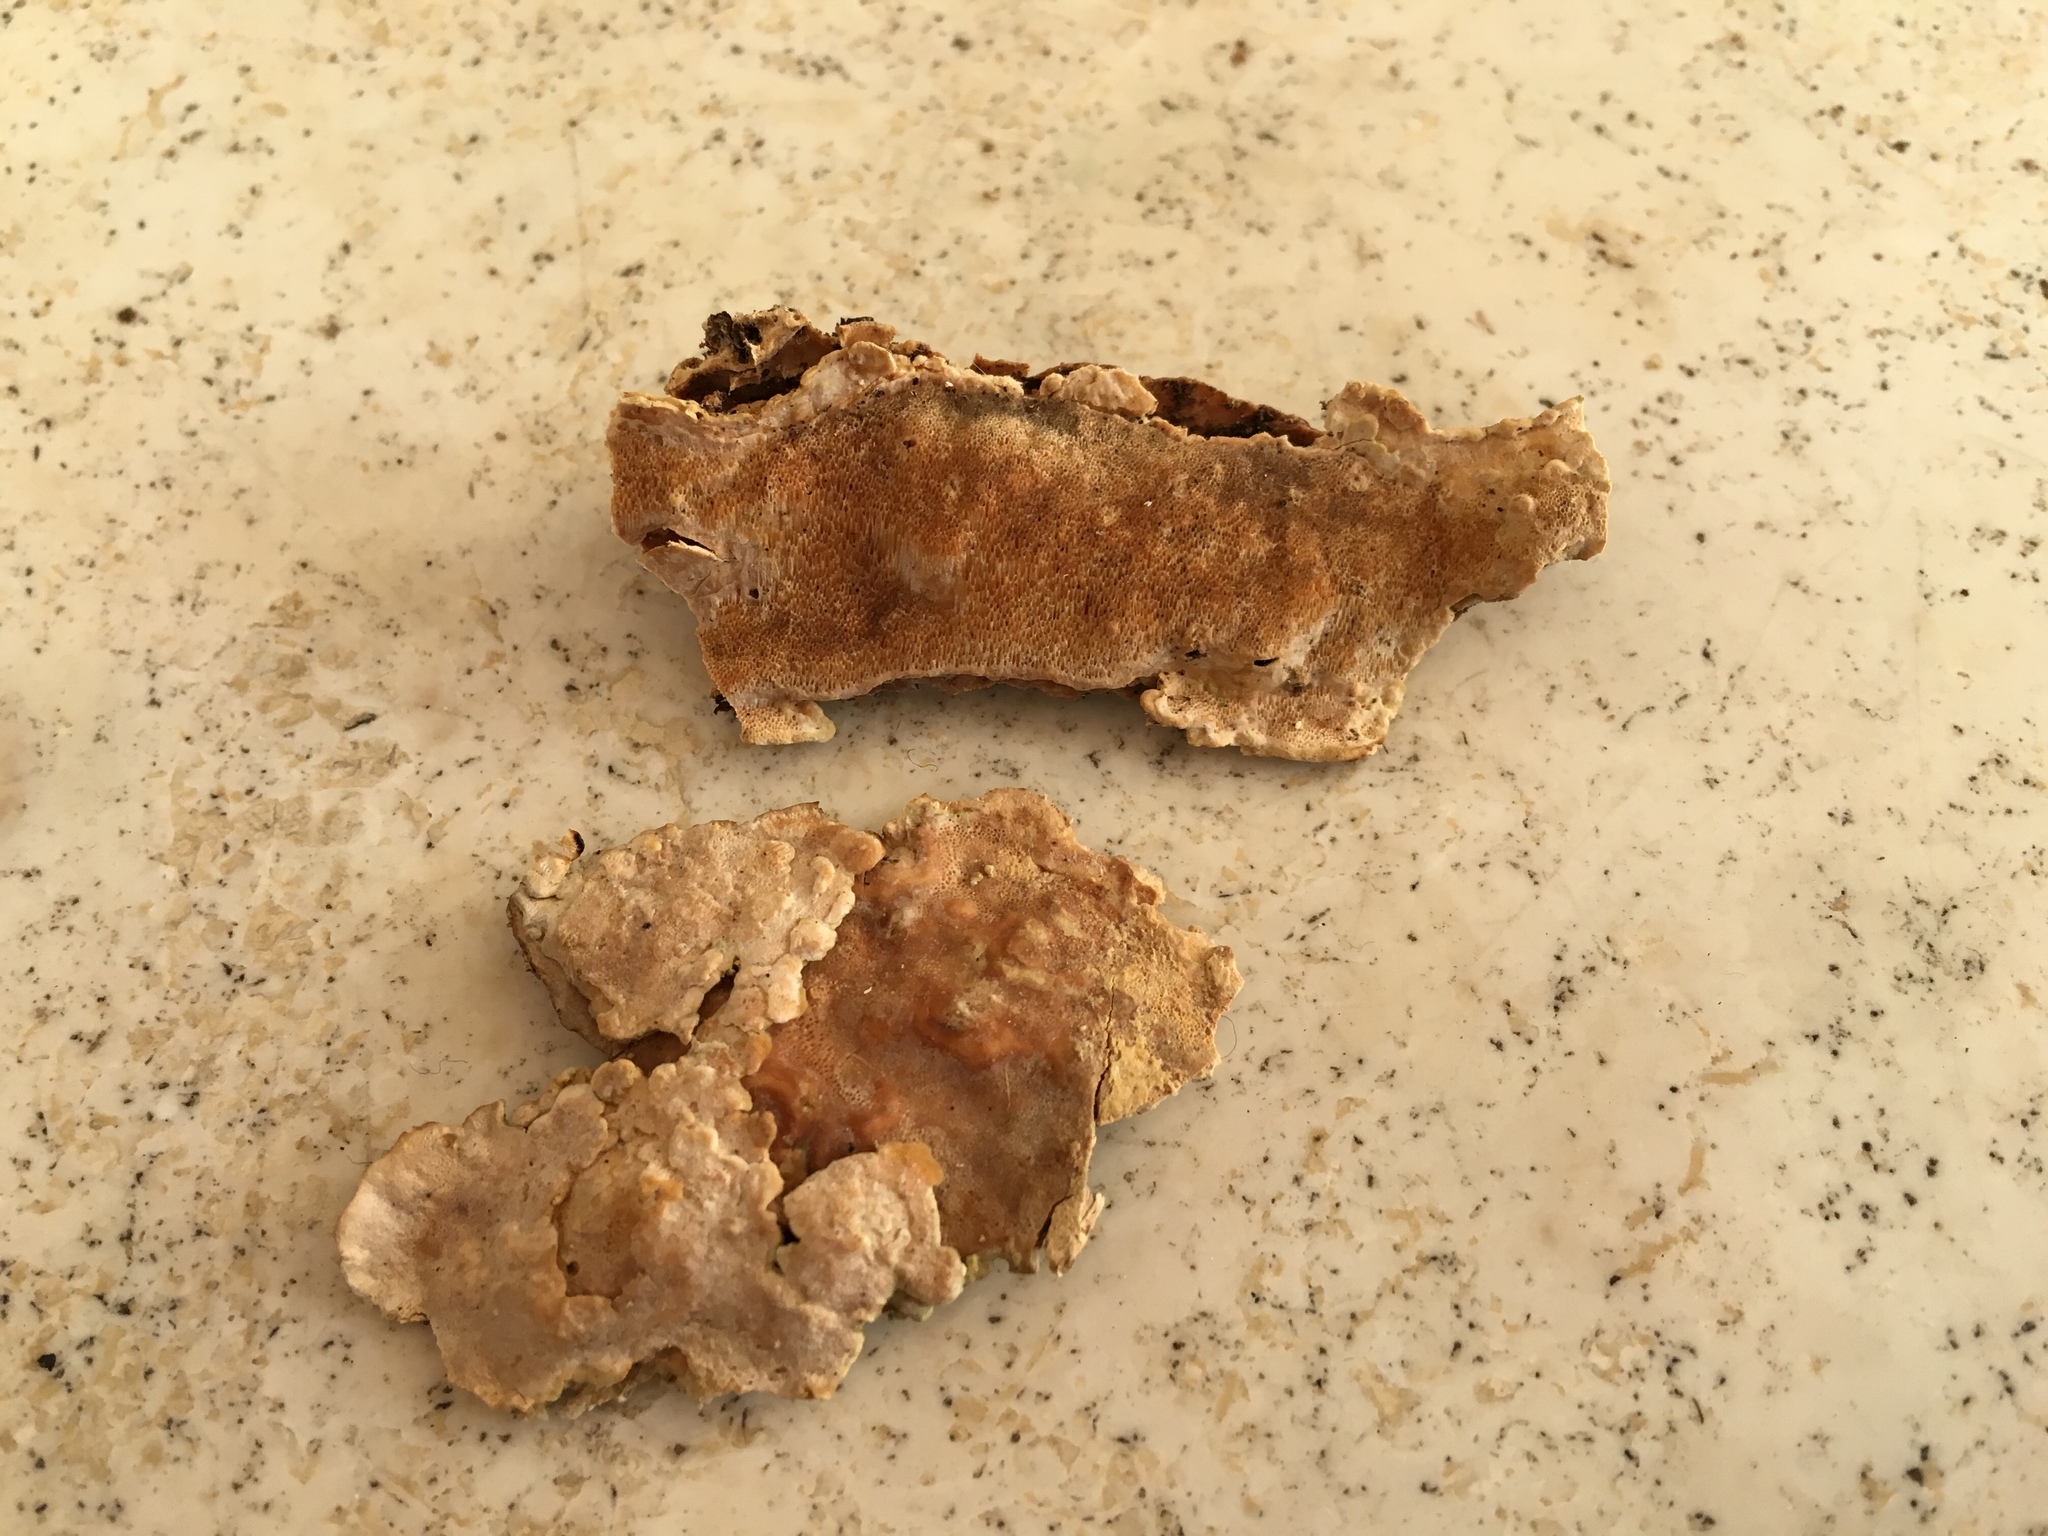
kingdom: Fungi
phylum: Basidiomycota
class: Agaricomycetes
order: Polyporales
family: Meripilaceae
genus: Rigidoporus
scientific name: Rigidoporus crocatus
